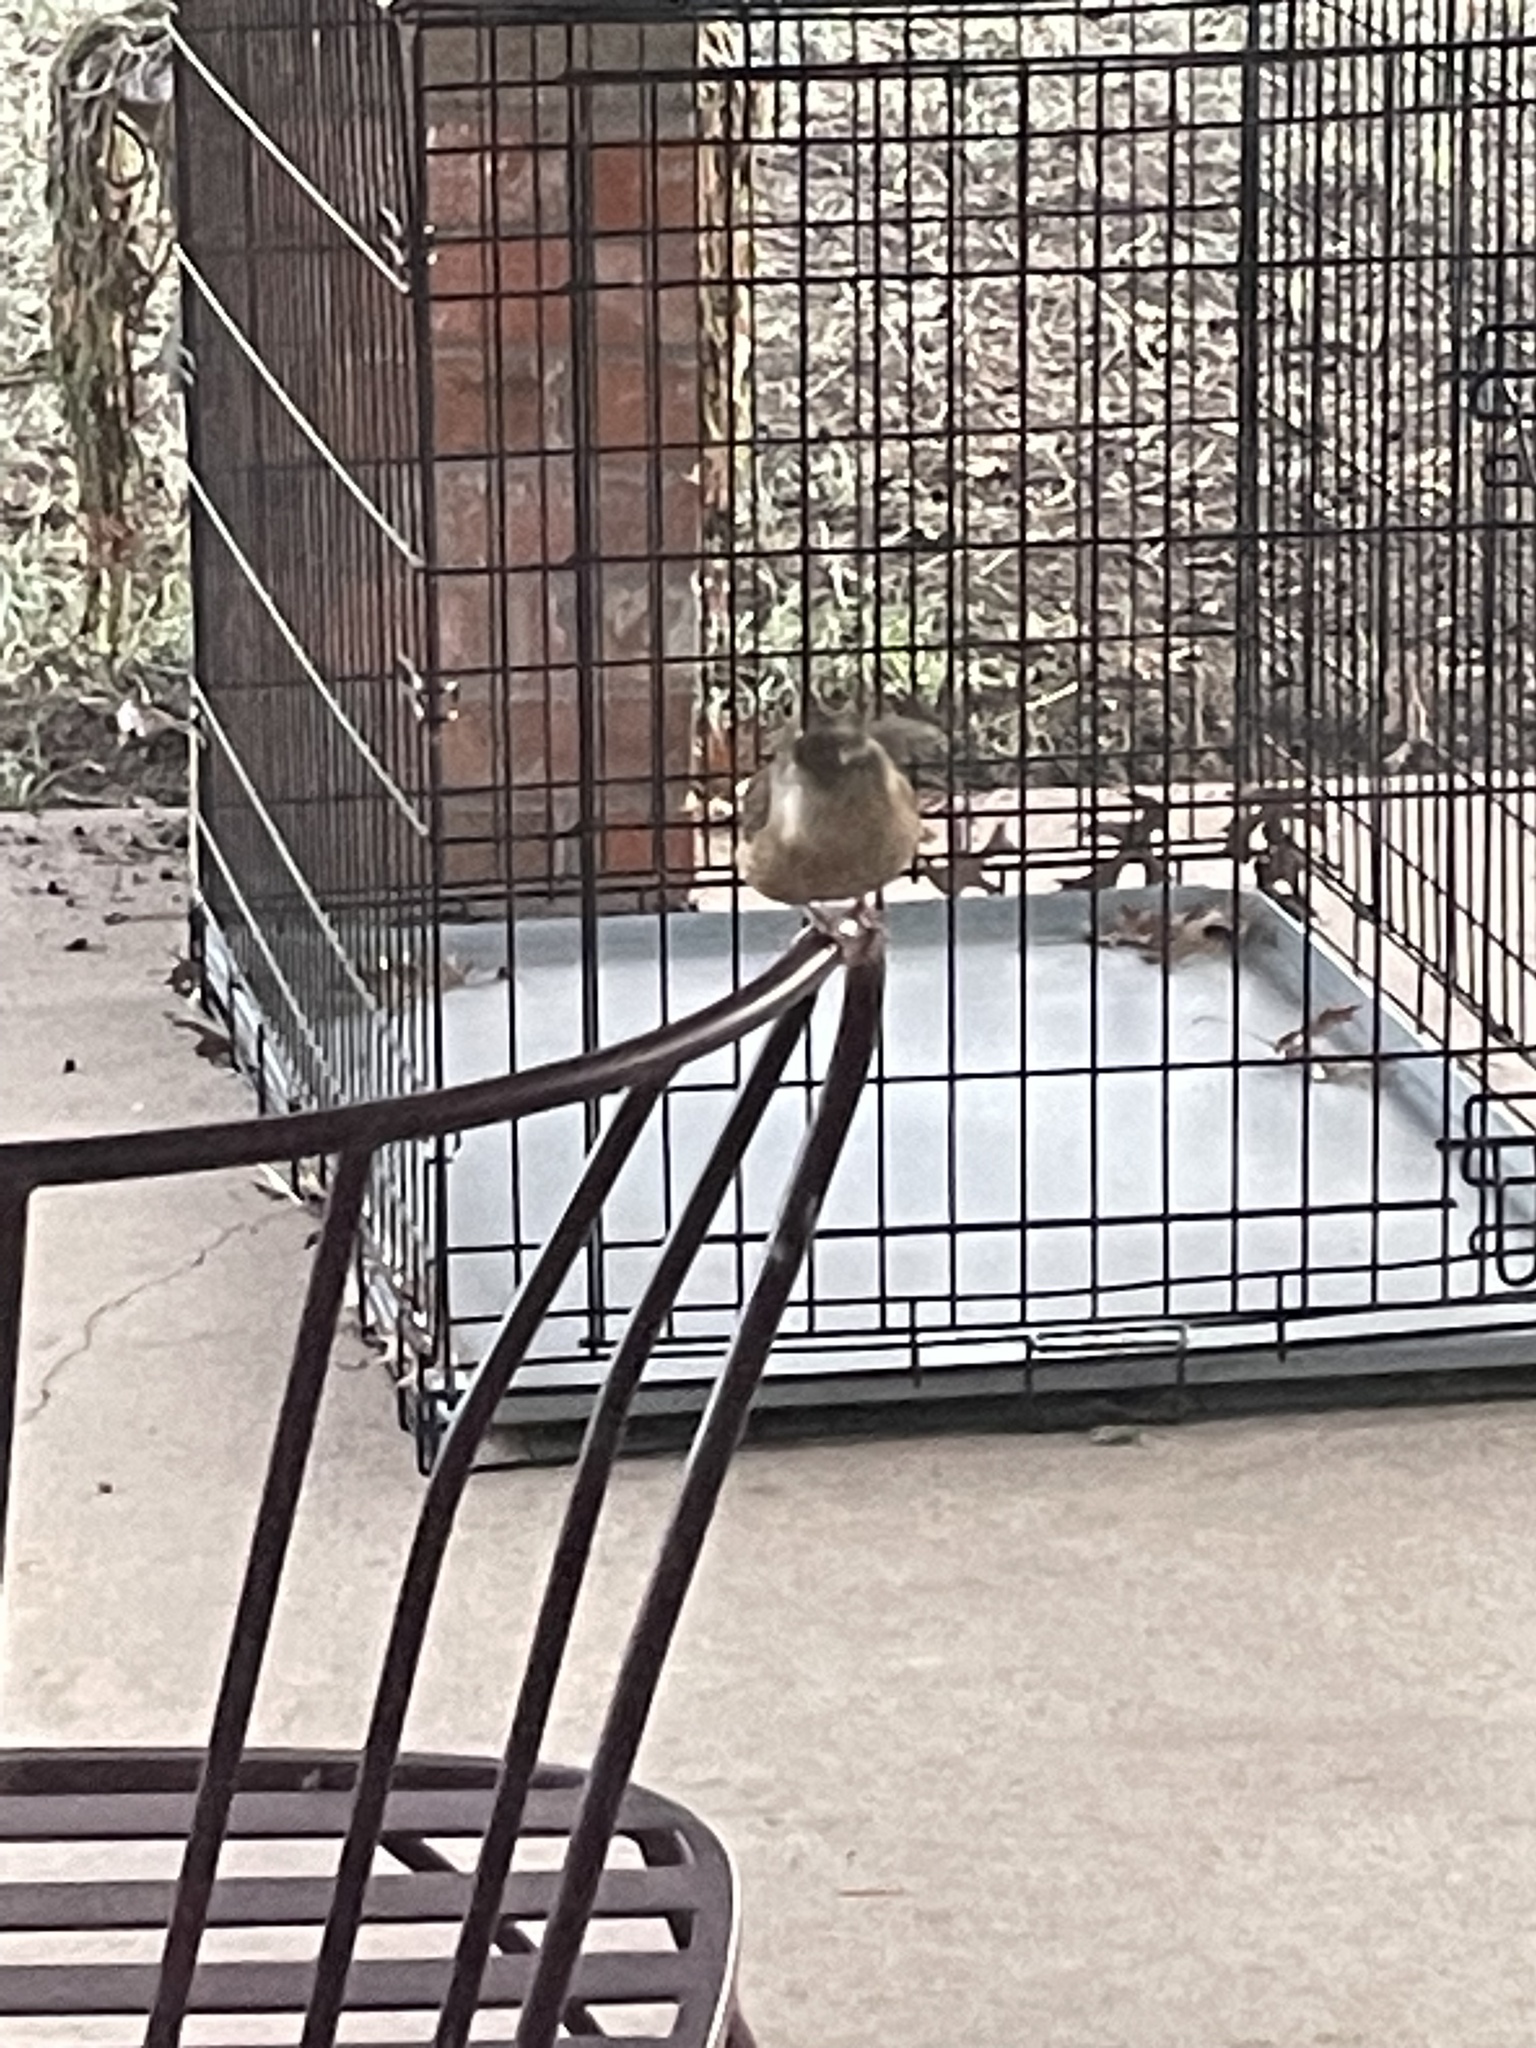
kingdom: Animalia
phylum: Chordata
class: Aves
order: Passeriformes
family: Troglodytidae
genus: Thryothorus
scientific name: Thryothorus ludovicianus
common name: Carolina wren
